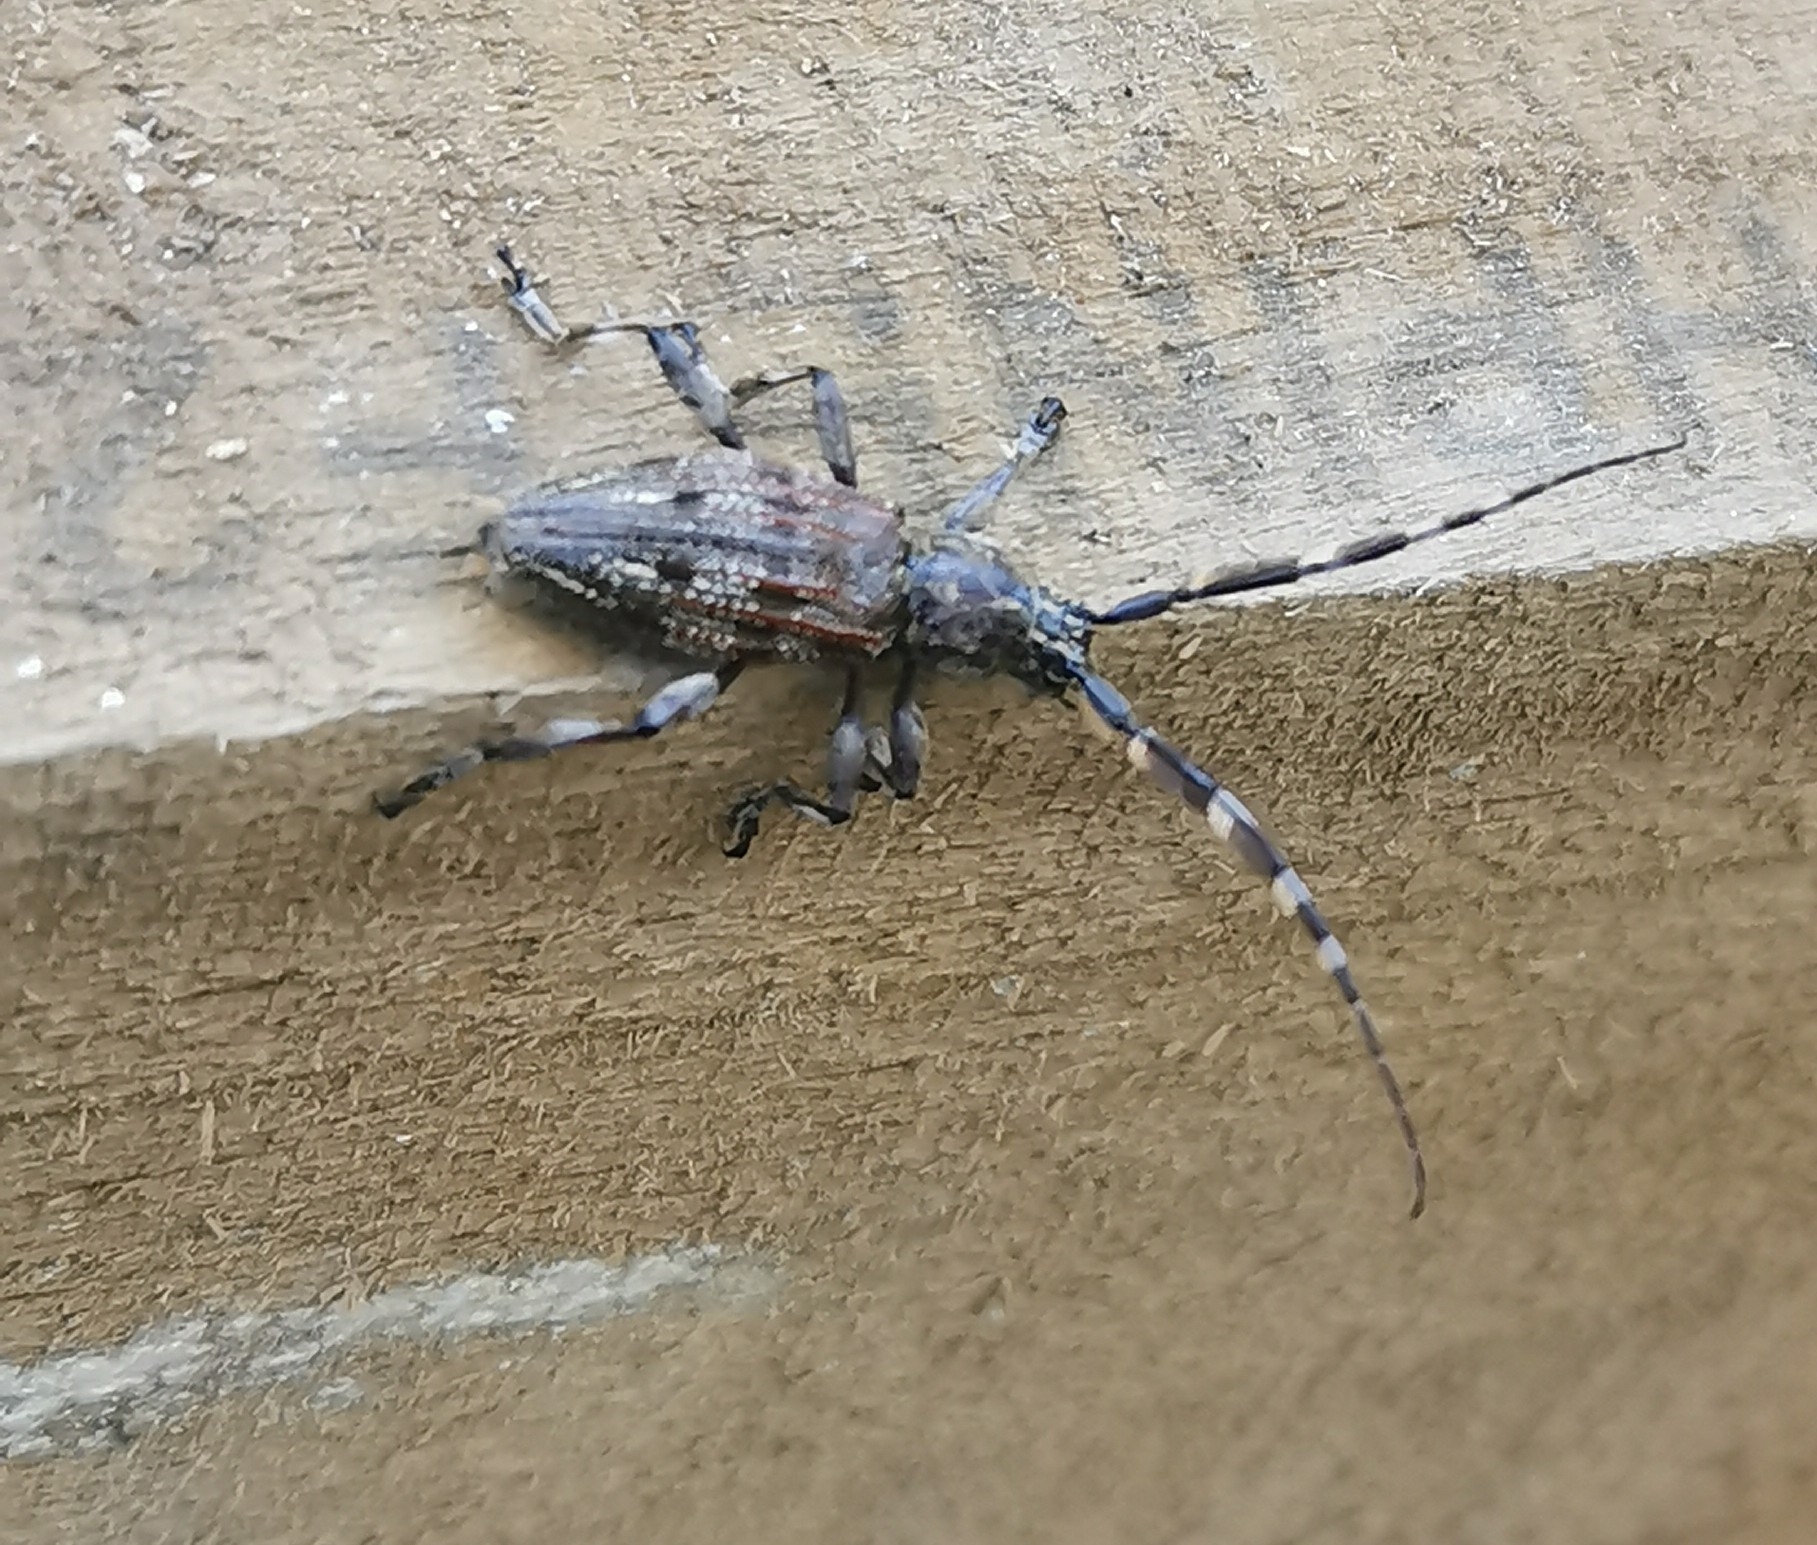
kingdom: Animalia
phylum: Arthropoda
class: Insecta
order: Coleoptera
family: Cerambycidae
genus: Hexatricha
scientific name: Hexatricha pulverulenta
